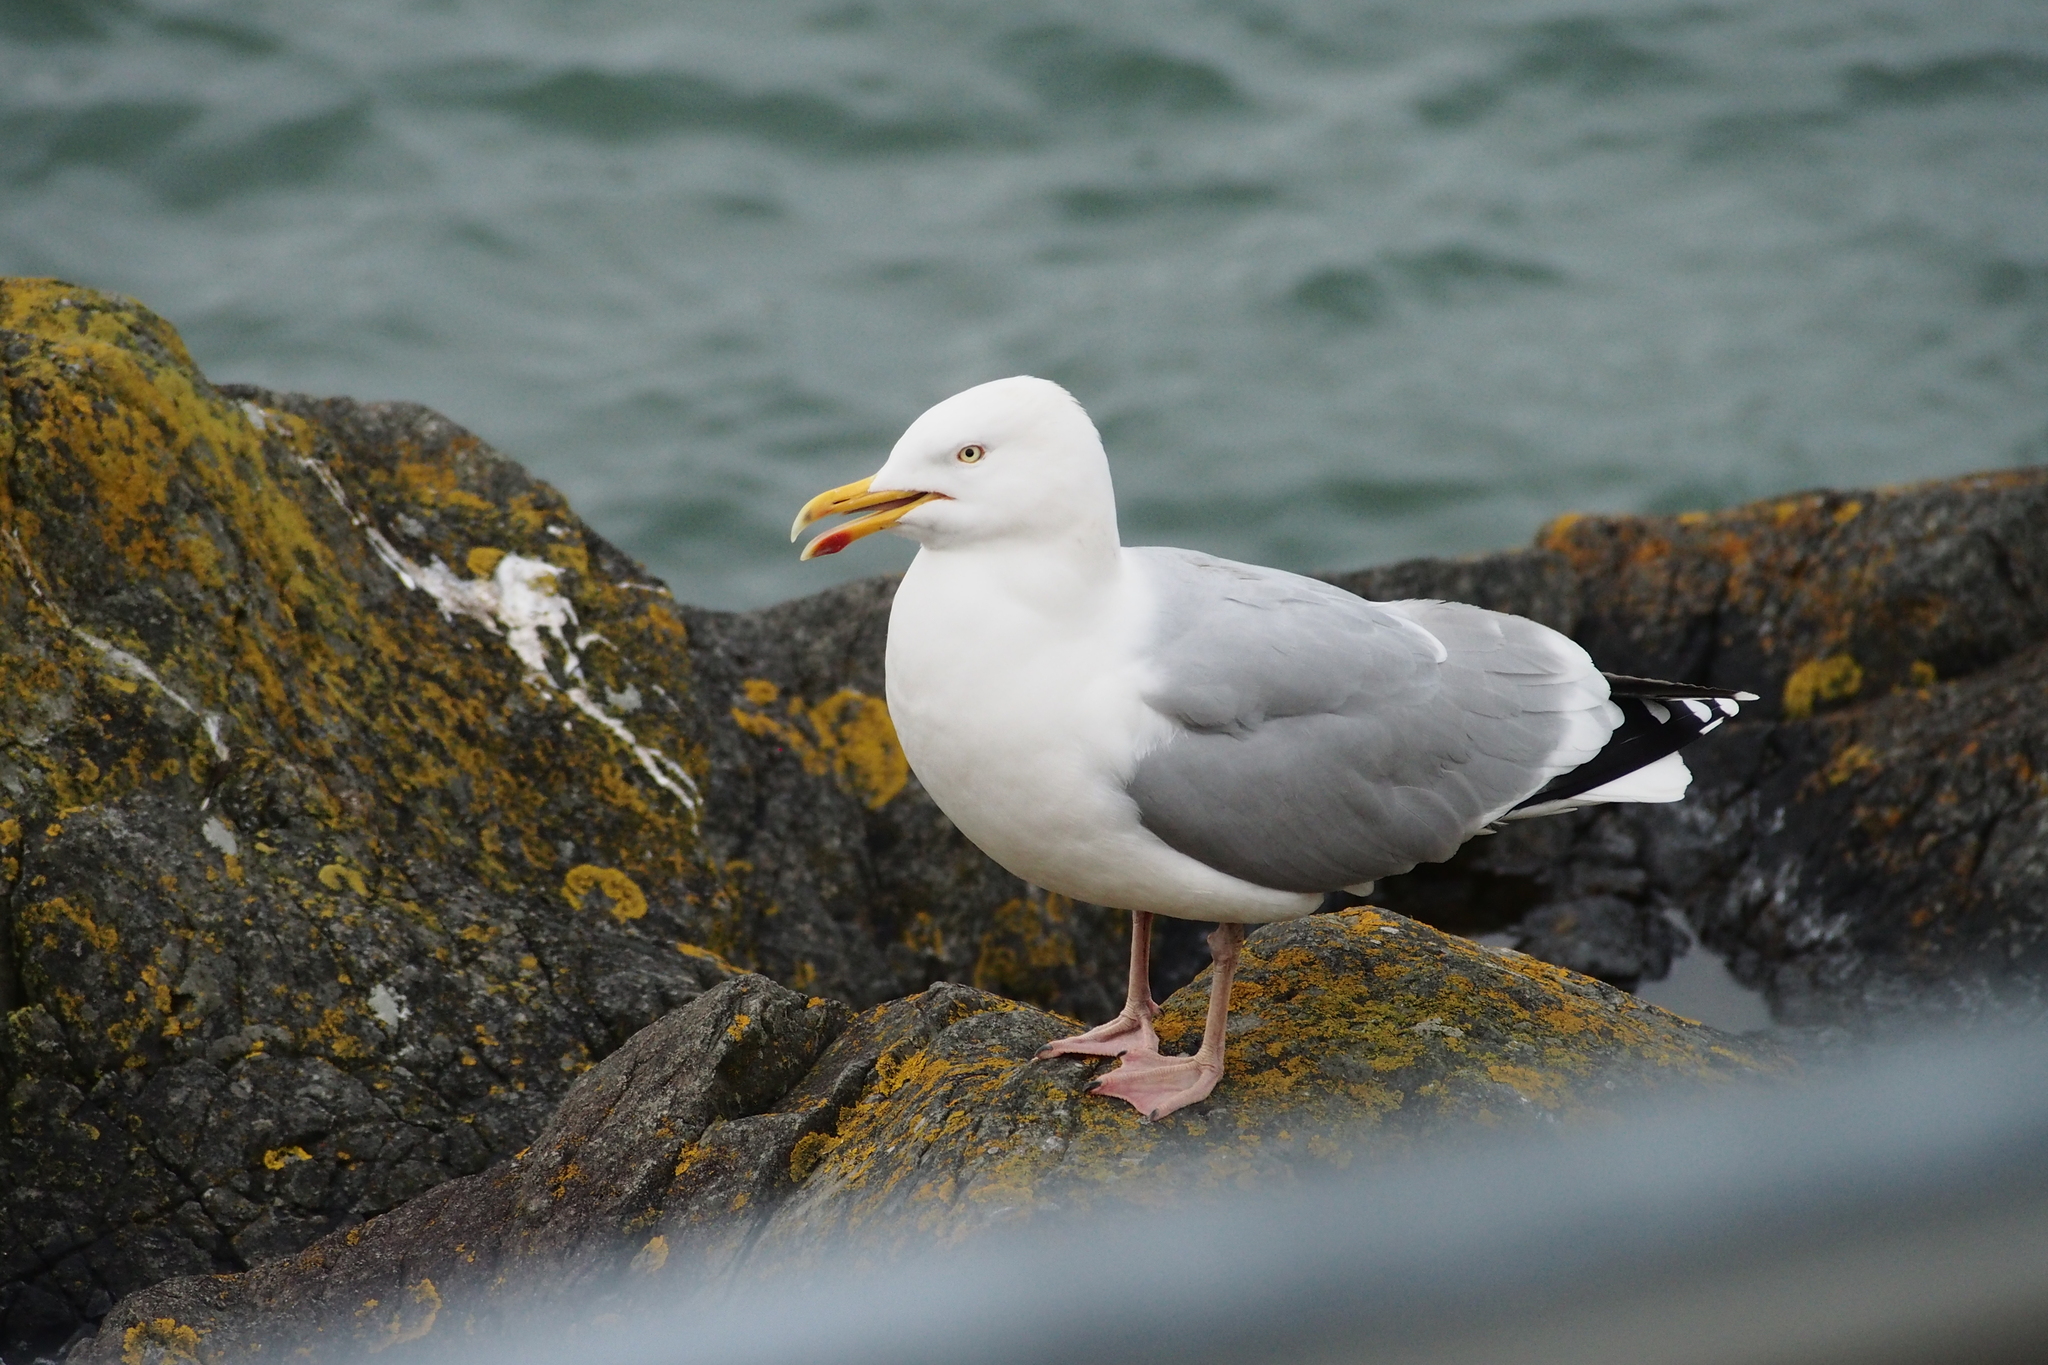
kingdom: Animalia
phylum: Chordata
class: Aves
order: Charadriiformes
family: Laridae
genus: Larus
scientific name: Larus argentatus
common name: Herring gull
